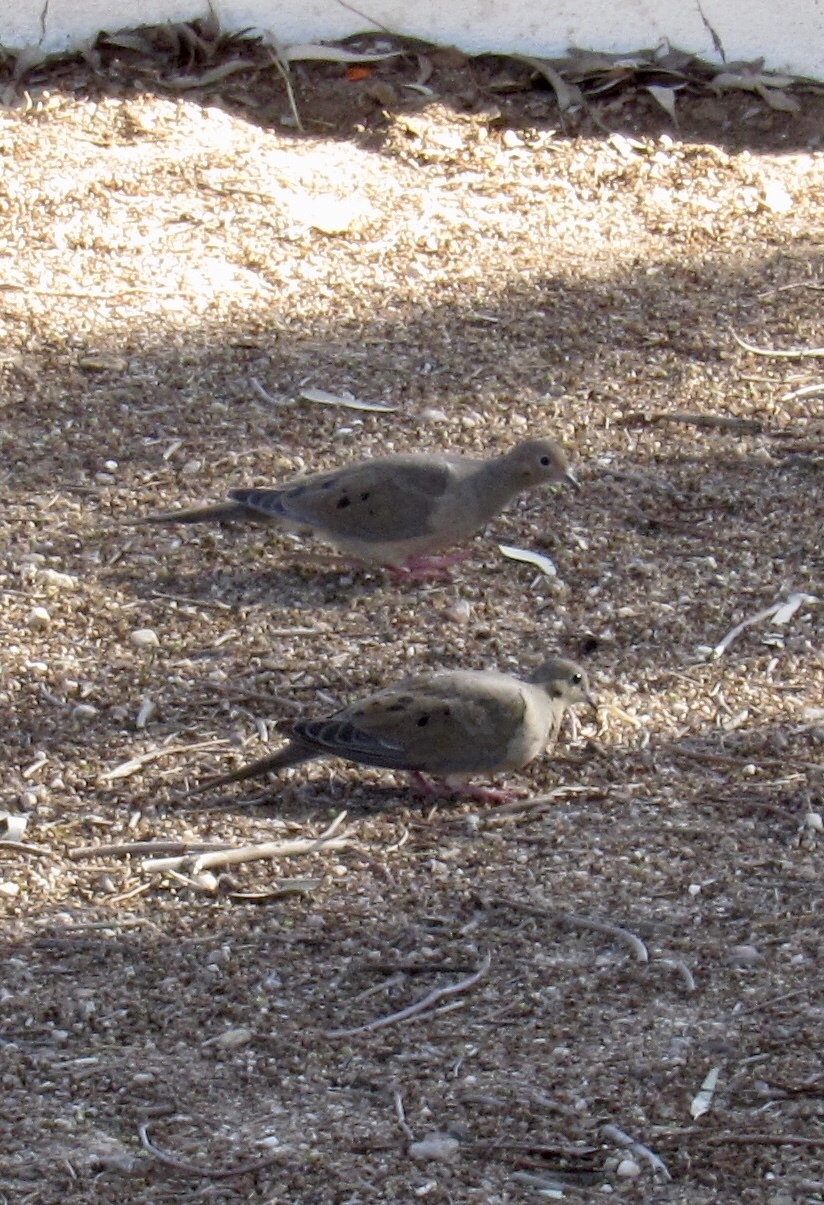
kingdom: Animalia
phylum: Chordata
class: Aves
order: Columbiformes
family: Columbidae
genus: Zenaida
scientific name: Zenaida macroura
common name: Mourning dove
